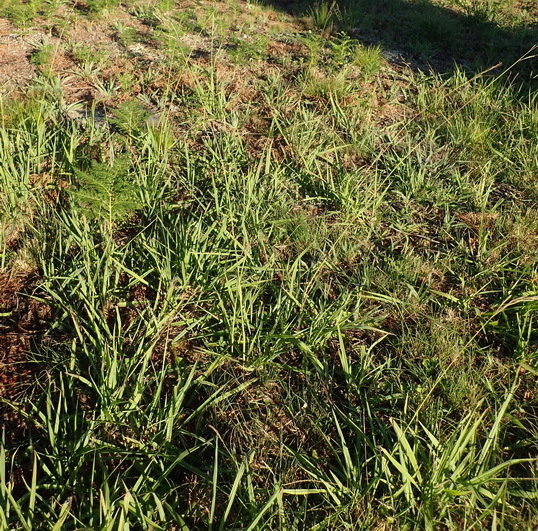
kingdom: Plantae
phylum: Tracheophyta
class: Liliopsida
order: Poales
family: Poaceae
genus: Paspalum
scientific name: Paspalum urvillei
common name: Vasey's grass
